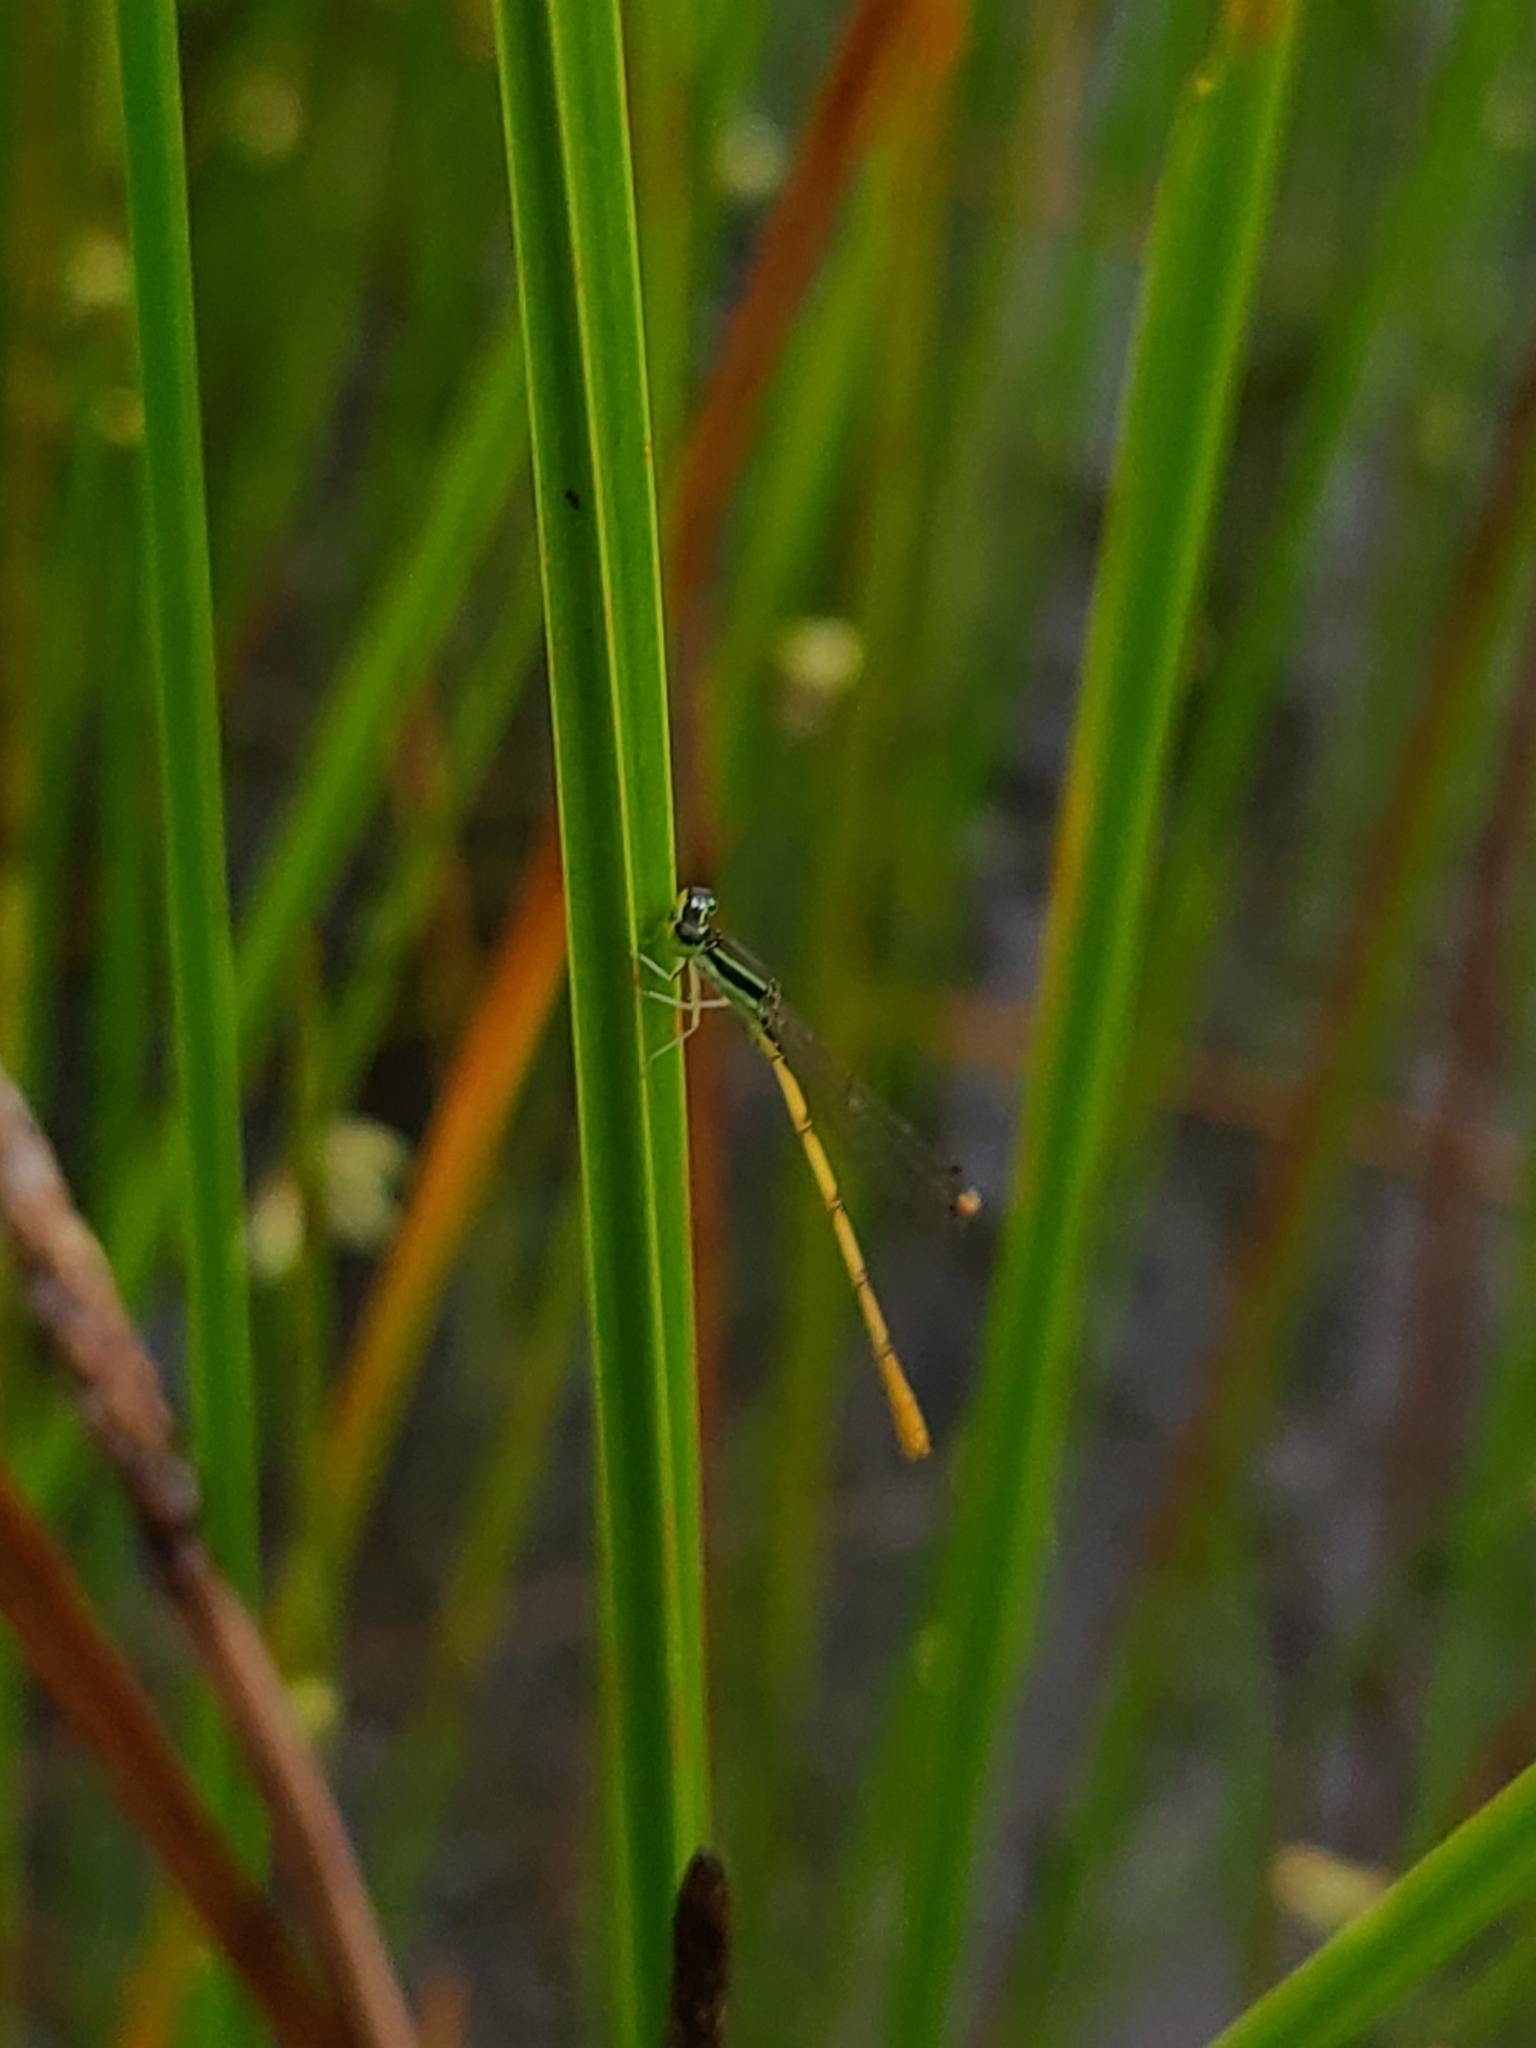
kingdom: Animalia
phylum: Arthropoda
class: Insecta
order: Odonata
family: Coenagrionidae
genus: Ischnura
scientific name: Ischnura hastata
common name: Citrine forktail
